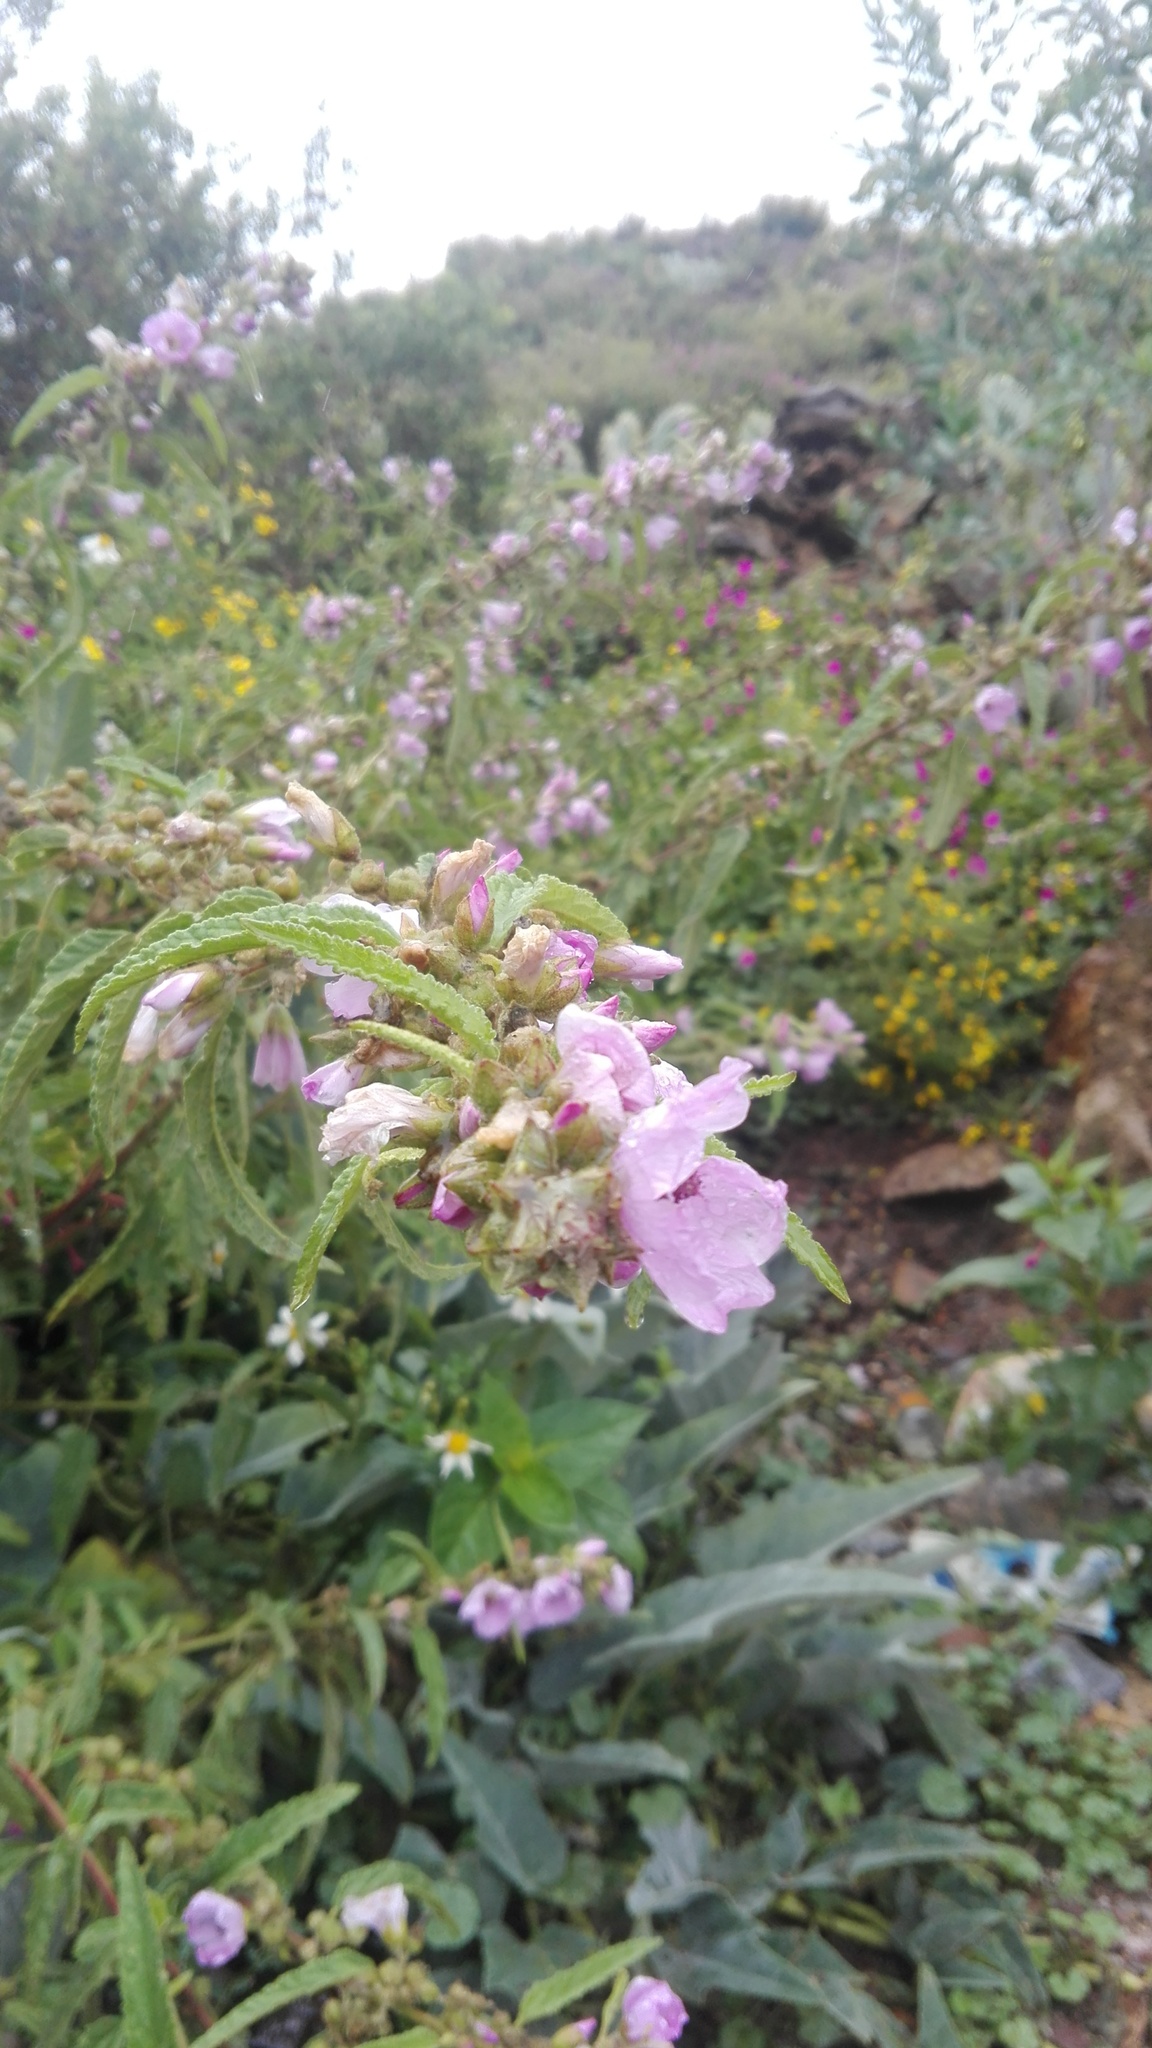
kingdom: Plantae
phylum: Tracheophyta
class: Magnoliopsida
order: Malvales
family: Malvaceae
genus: Sphaeralcea
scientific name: Sphaeralcea angustifolia
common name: Copper globe-mallow
